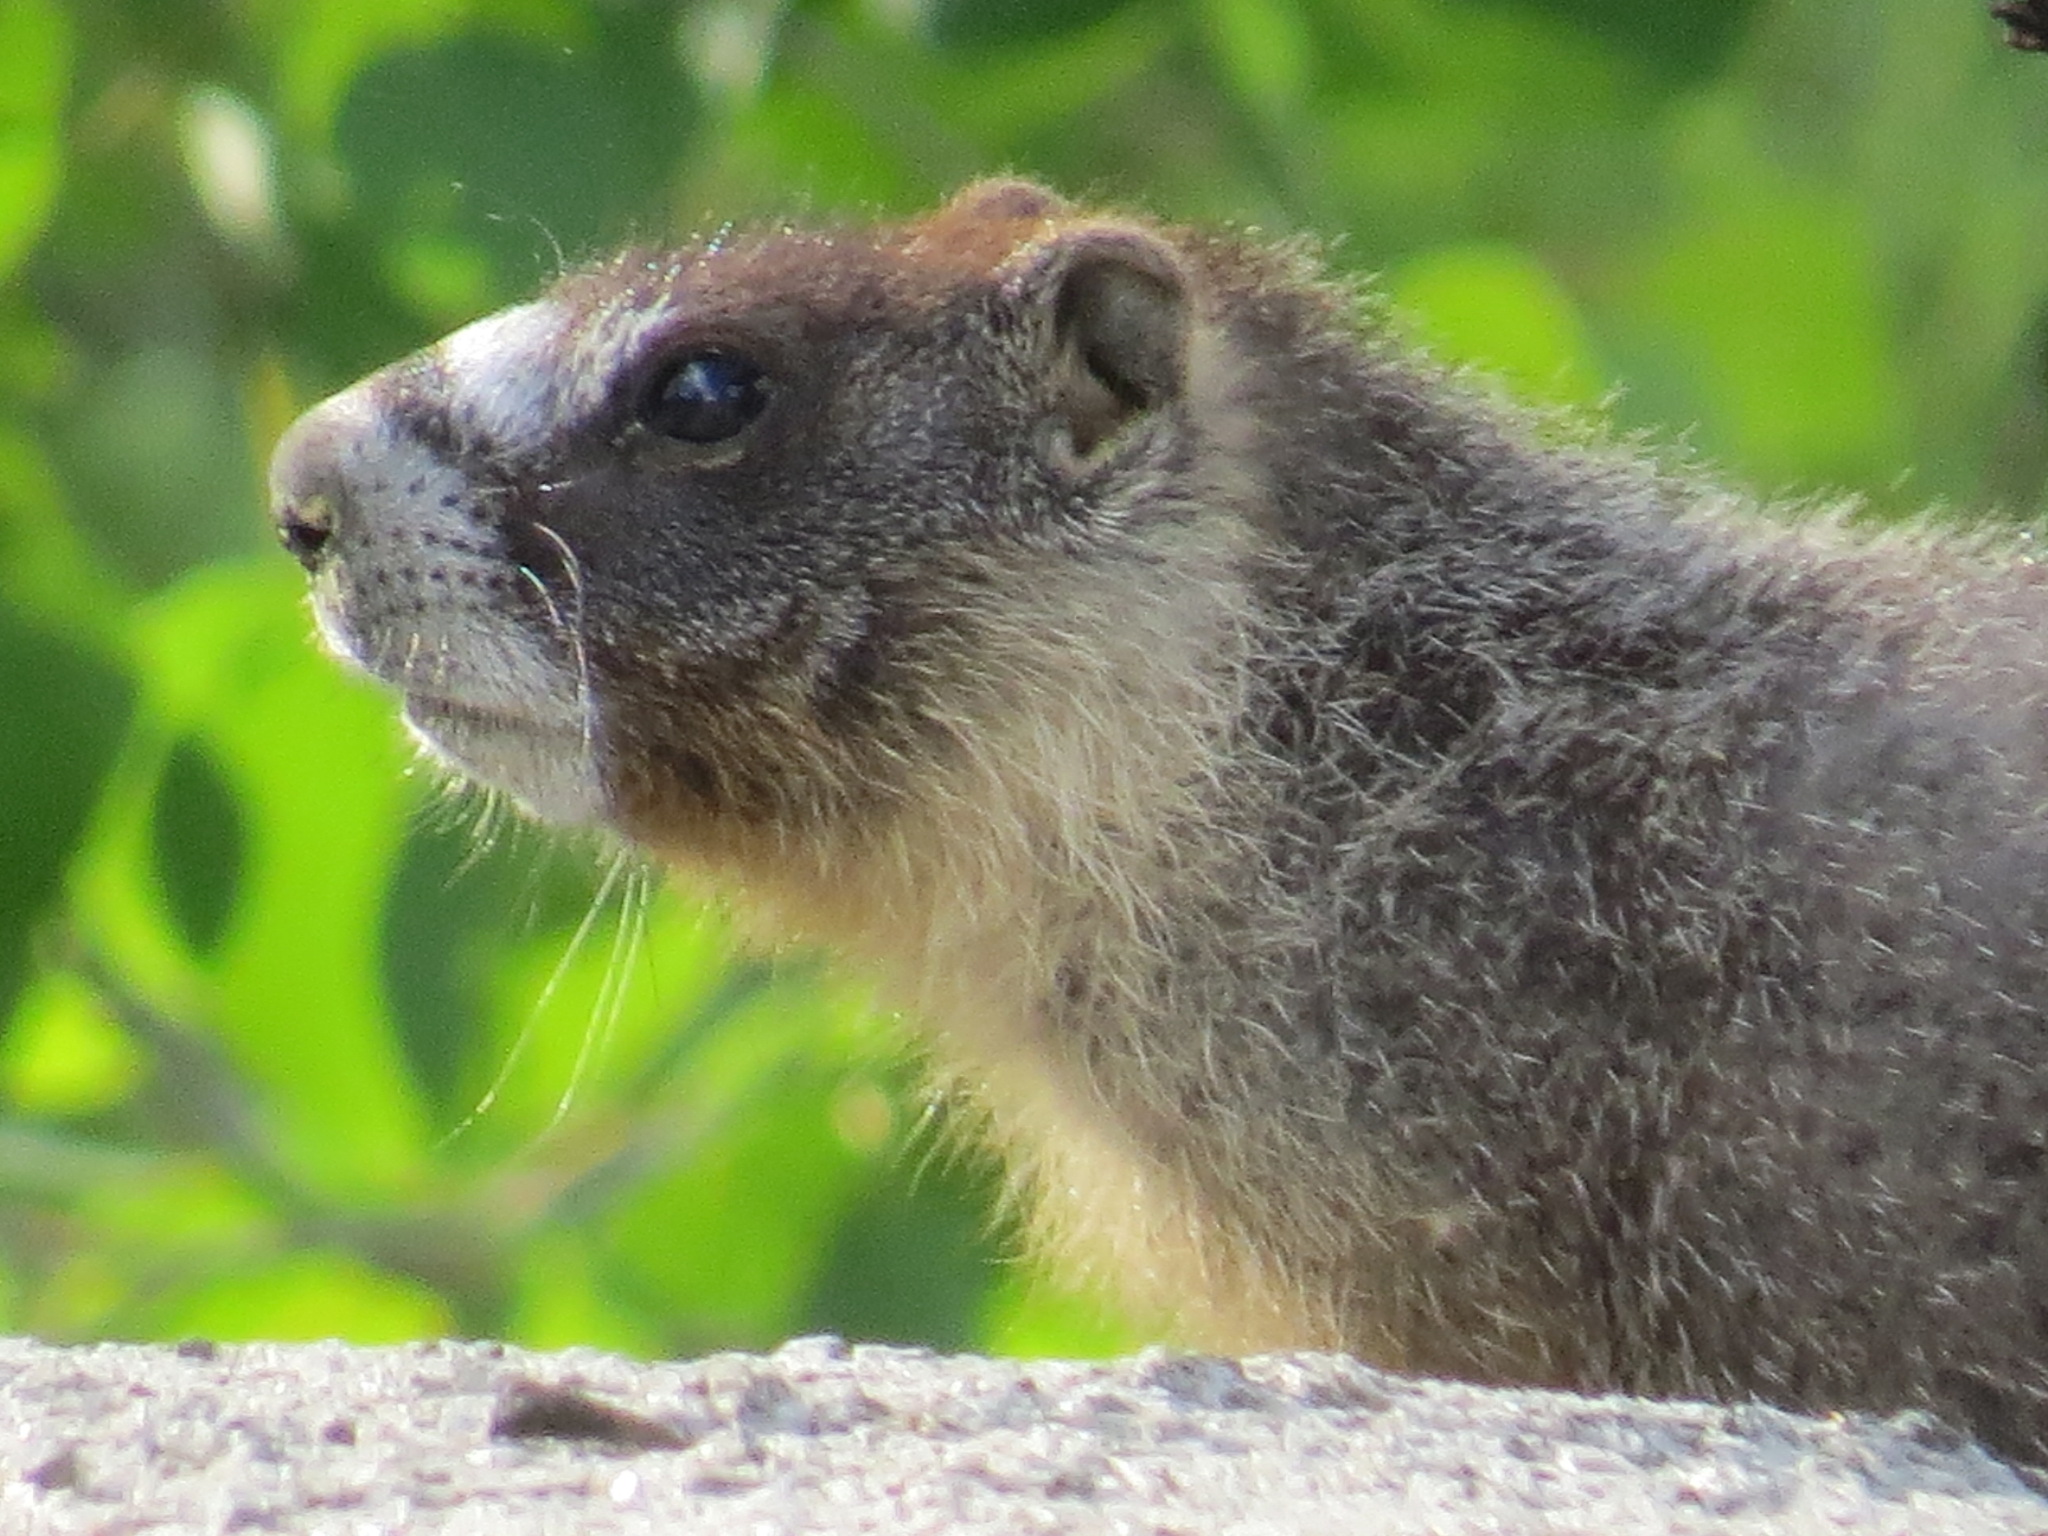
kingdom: Animalia
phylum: Chordata
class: Mammalia
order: Rodentia
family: Sciuridae
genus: Marmota
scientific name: Marmota flaviventris
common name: Yellow-bellied marmot
